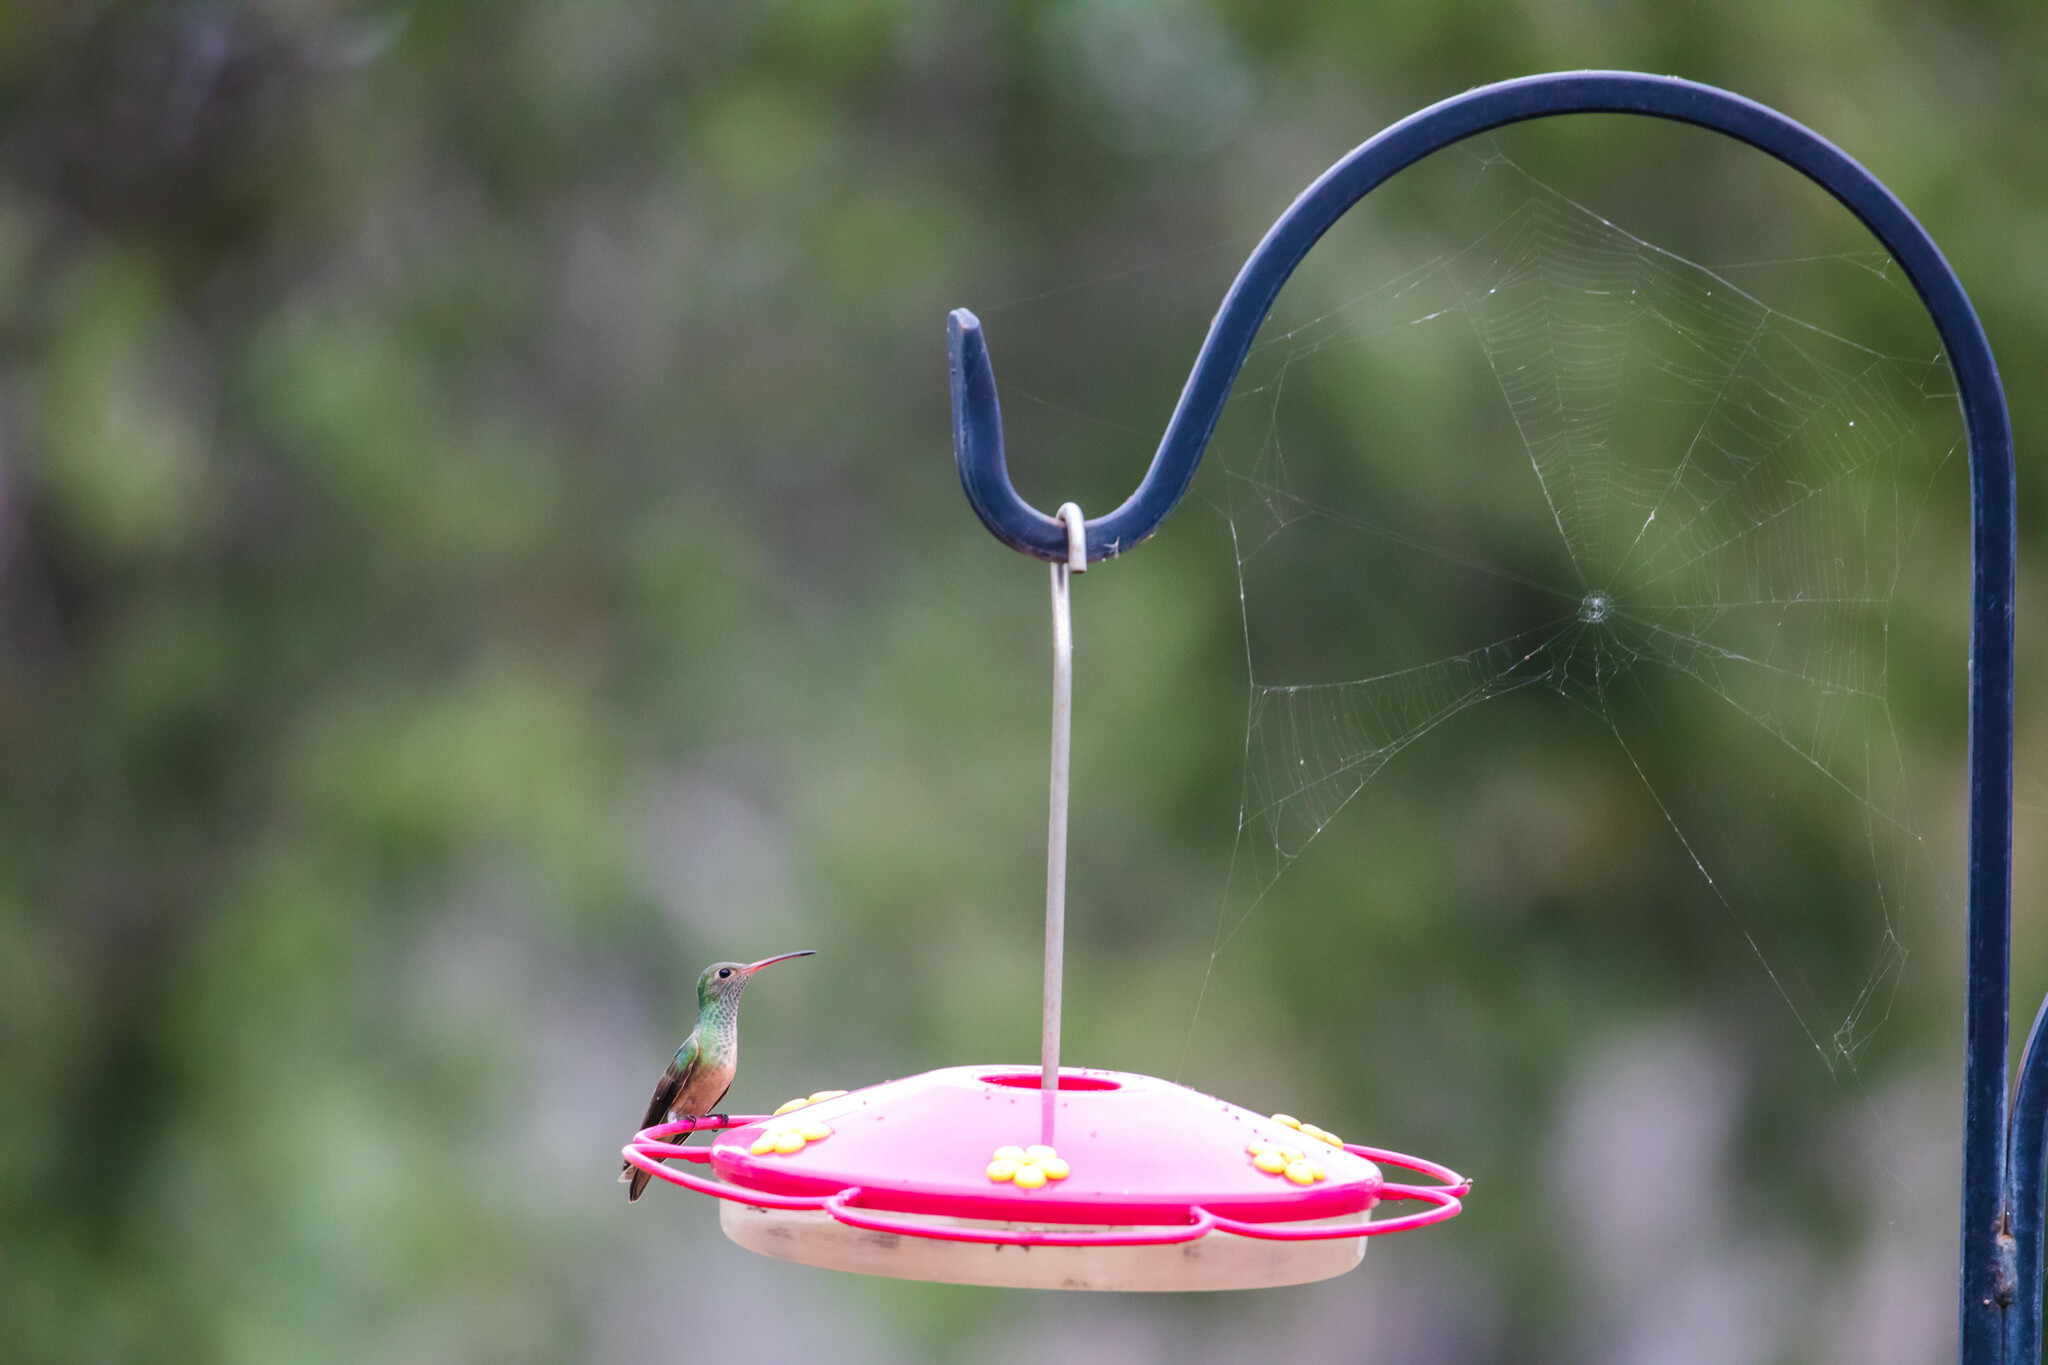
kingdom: Animalia
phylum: Chordata
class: Aves
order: Apodiformes
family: Trochilidae
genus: Amazilia
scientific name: Amazilia yucatanensis
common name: Buff-bellied hummingbird
